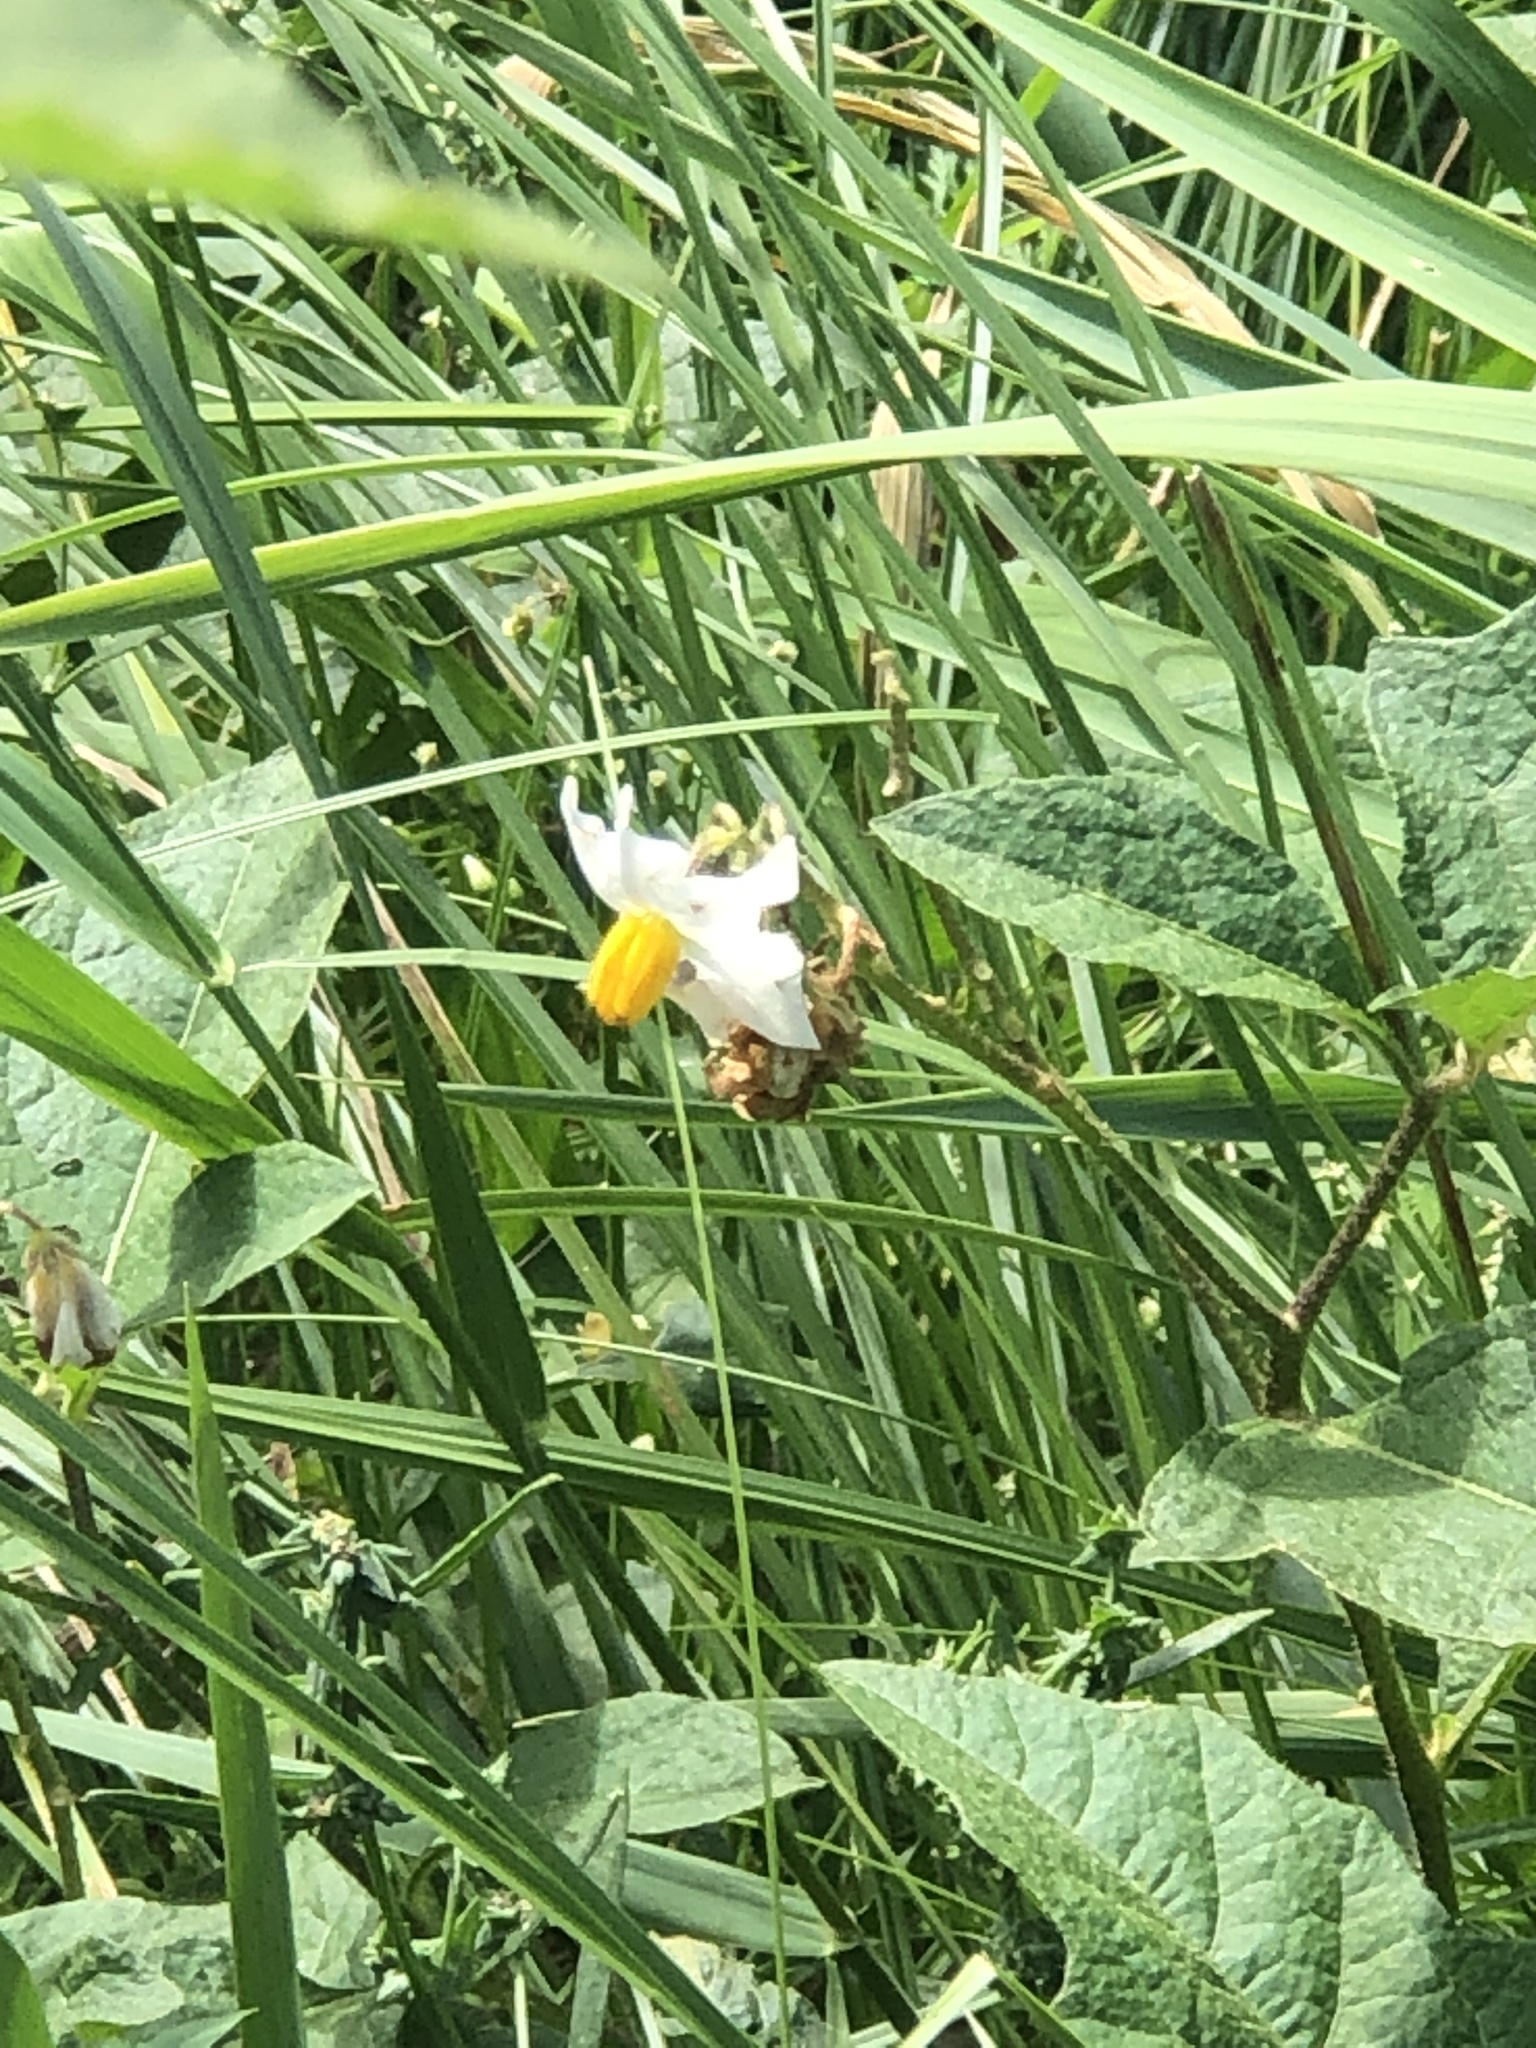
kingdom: Plantae
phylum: Tracheophyta
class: Magnoliopsida
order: Solanales
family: Solanaceae
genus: Solanum
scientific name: Solanum carolinense
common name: Horse-nettle
